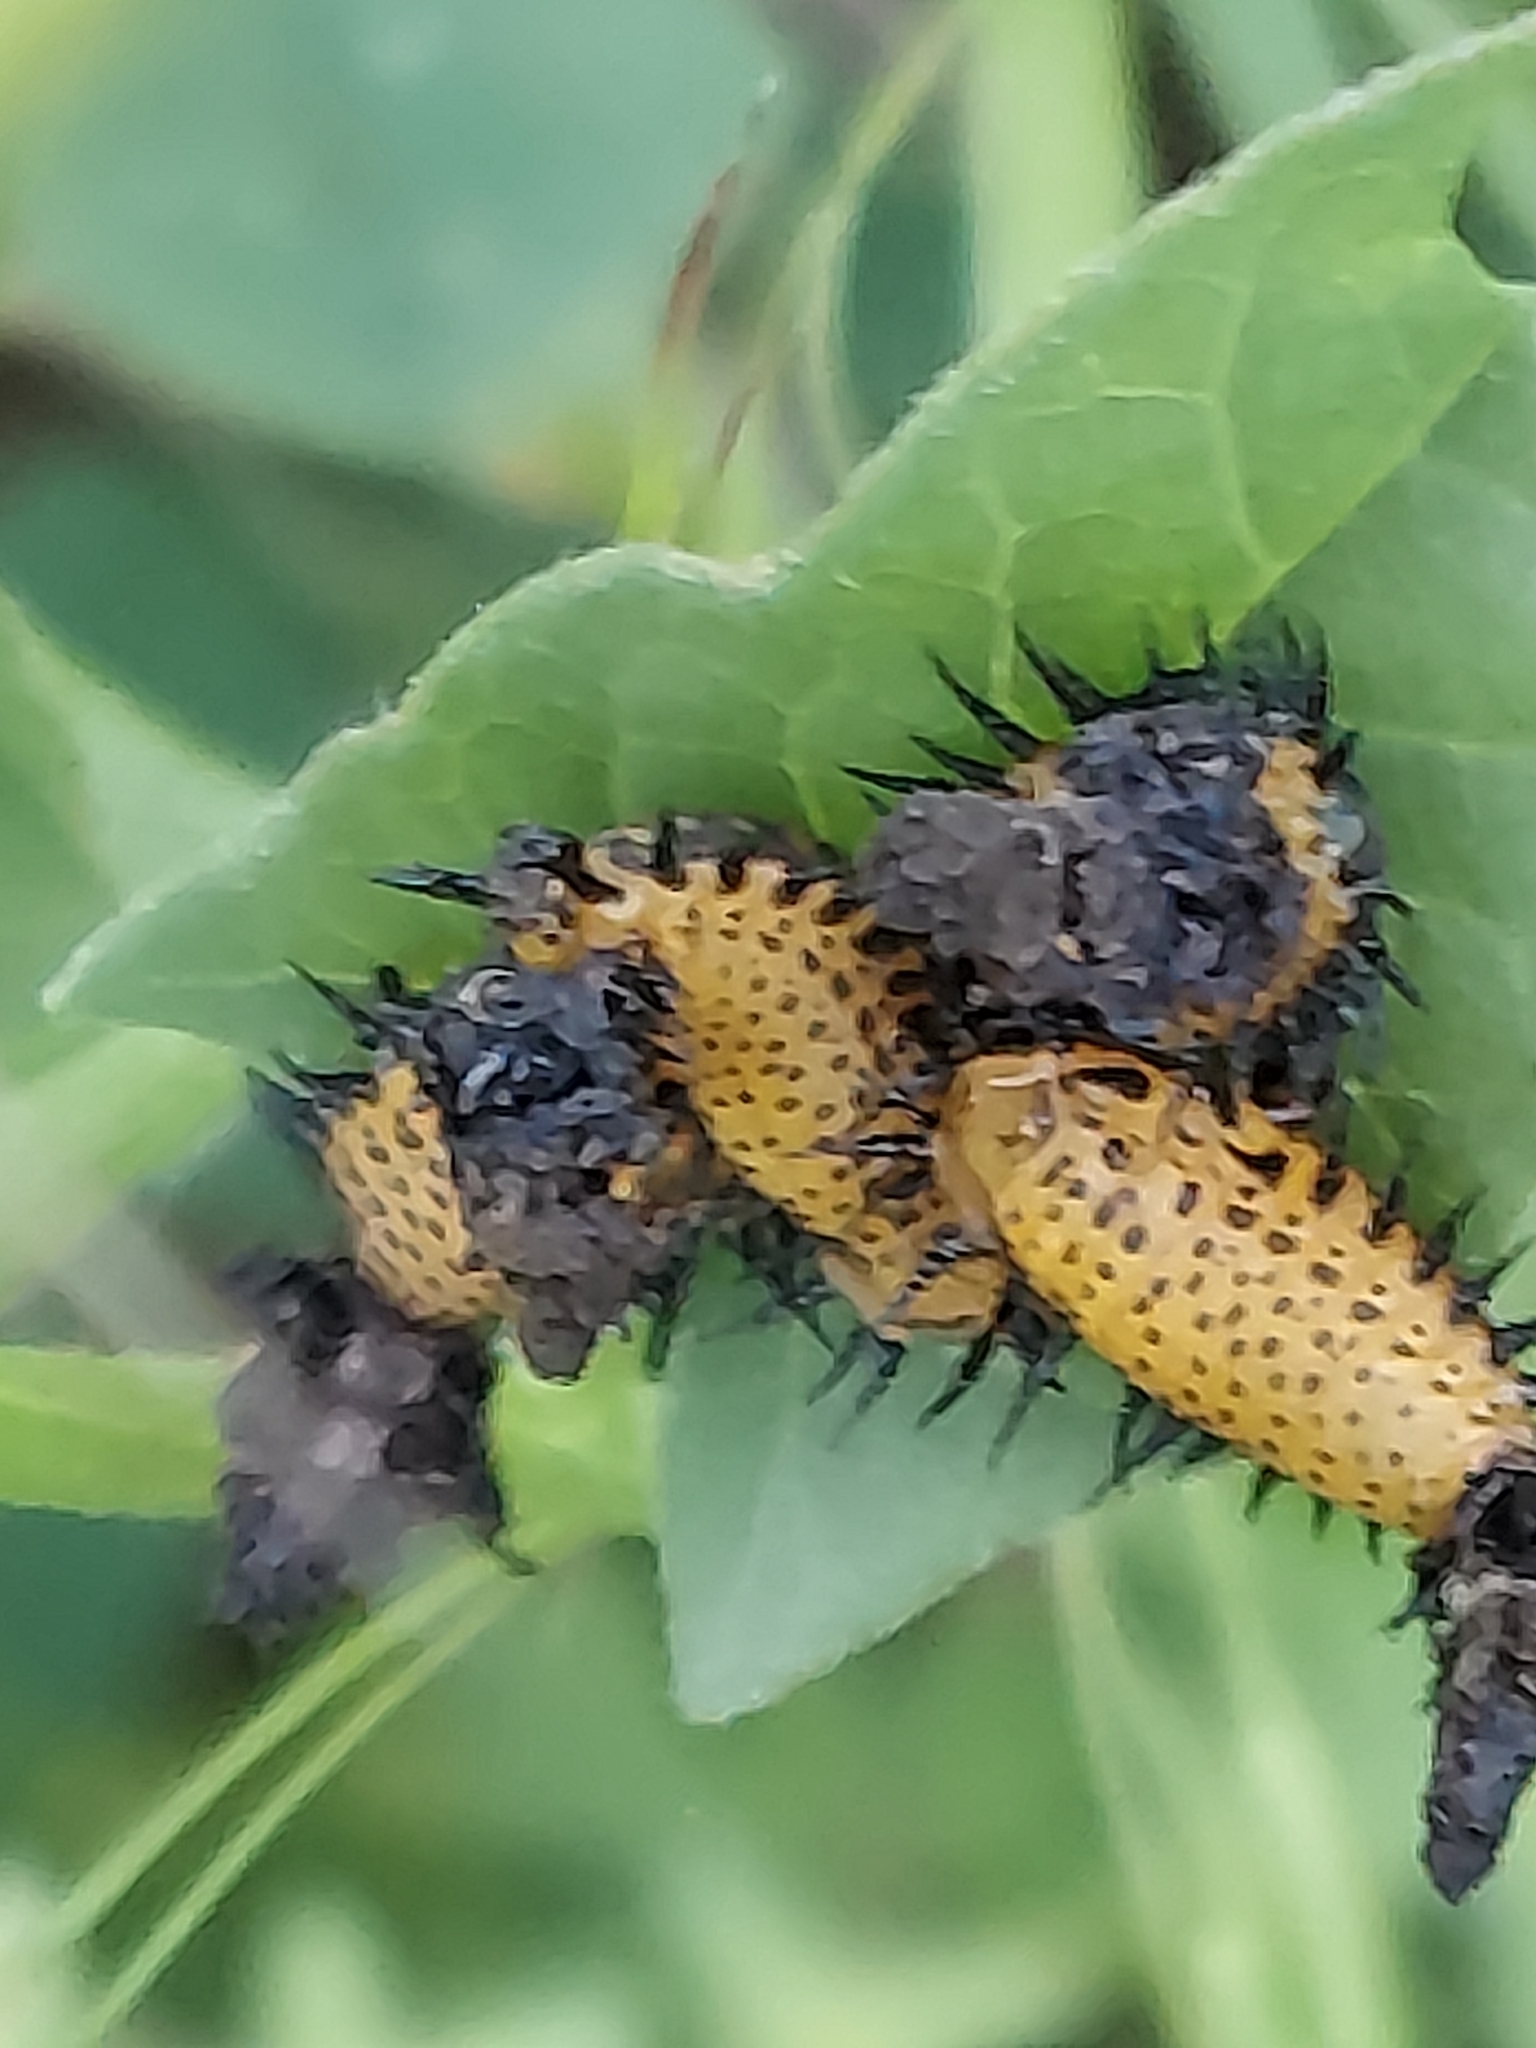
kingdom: Animalia
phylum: Arthropoda
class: Insecta
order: Coleoptera
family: Chrysomelidae
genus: Chelymorpha
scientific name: Chelymorpha cassidea
